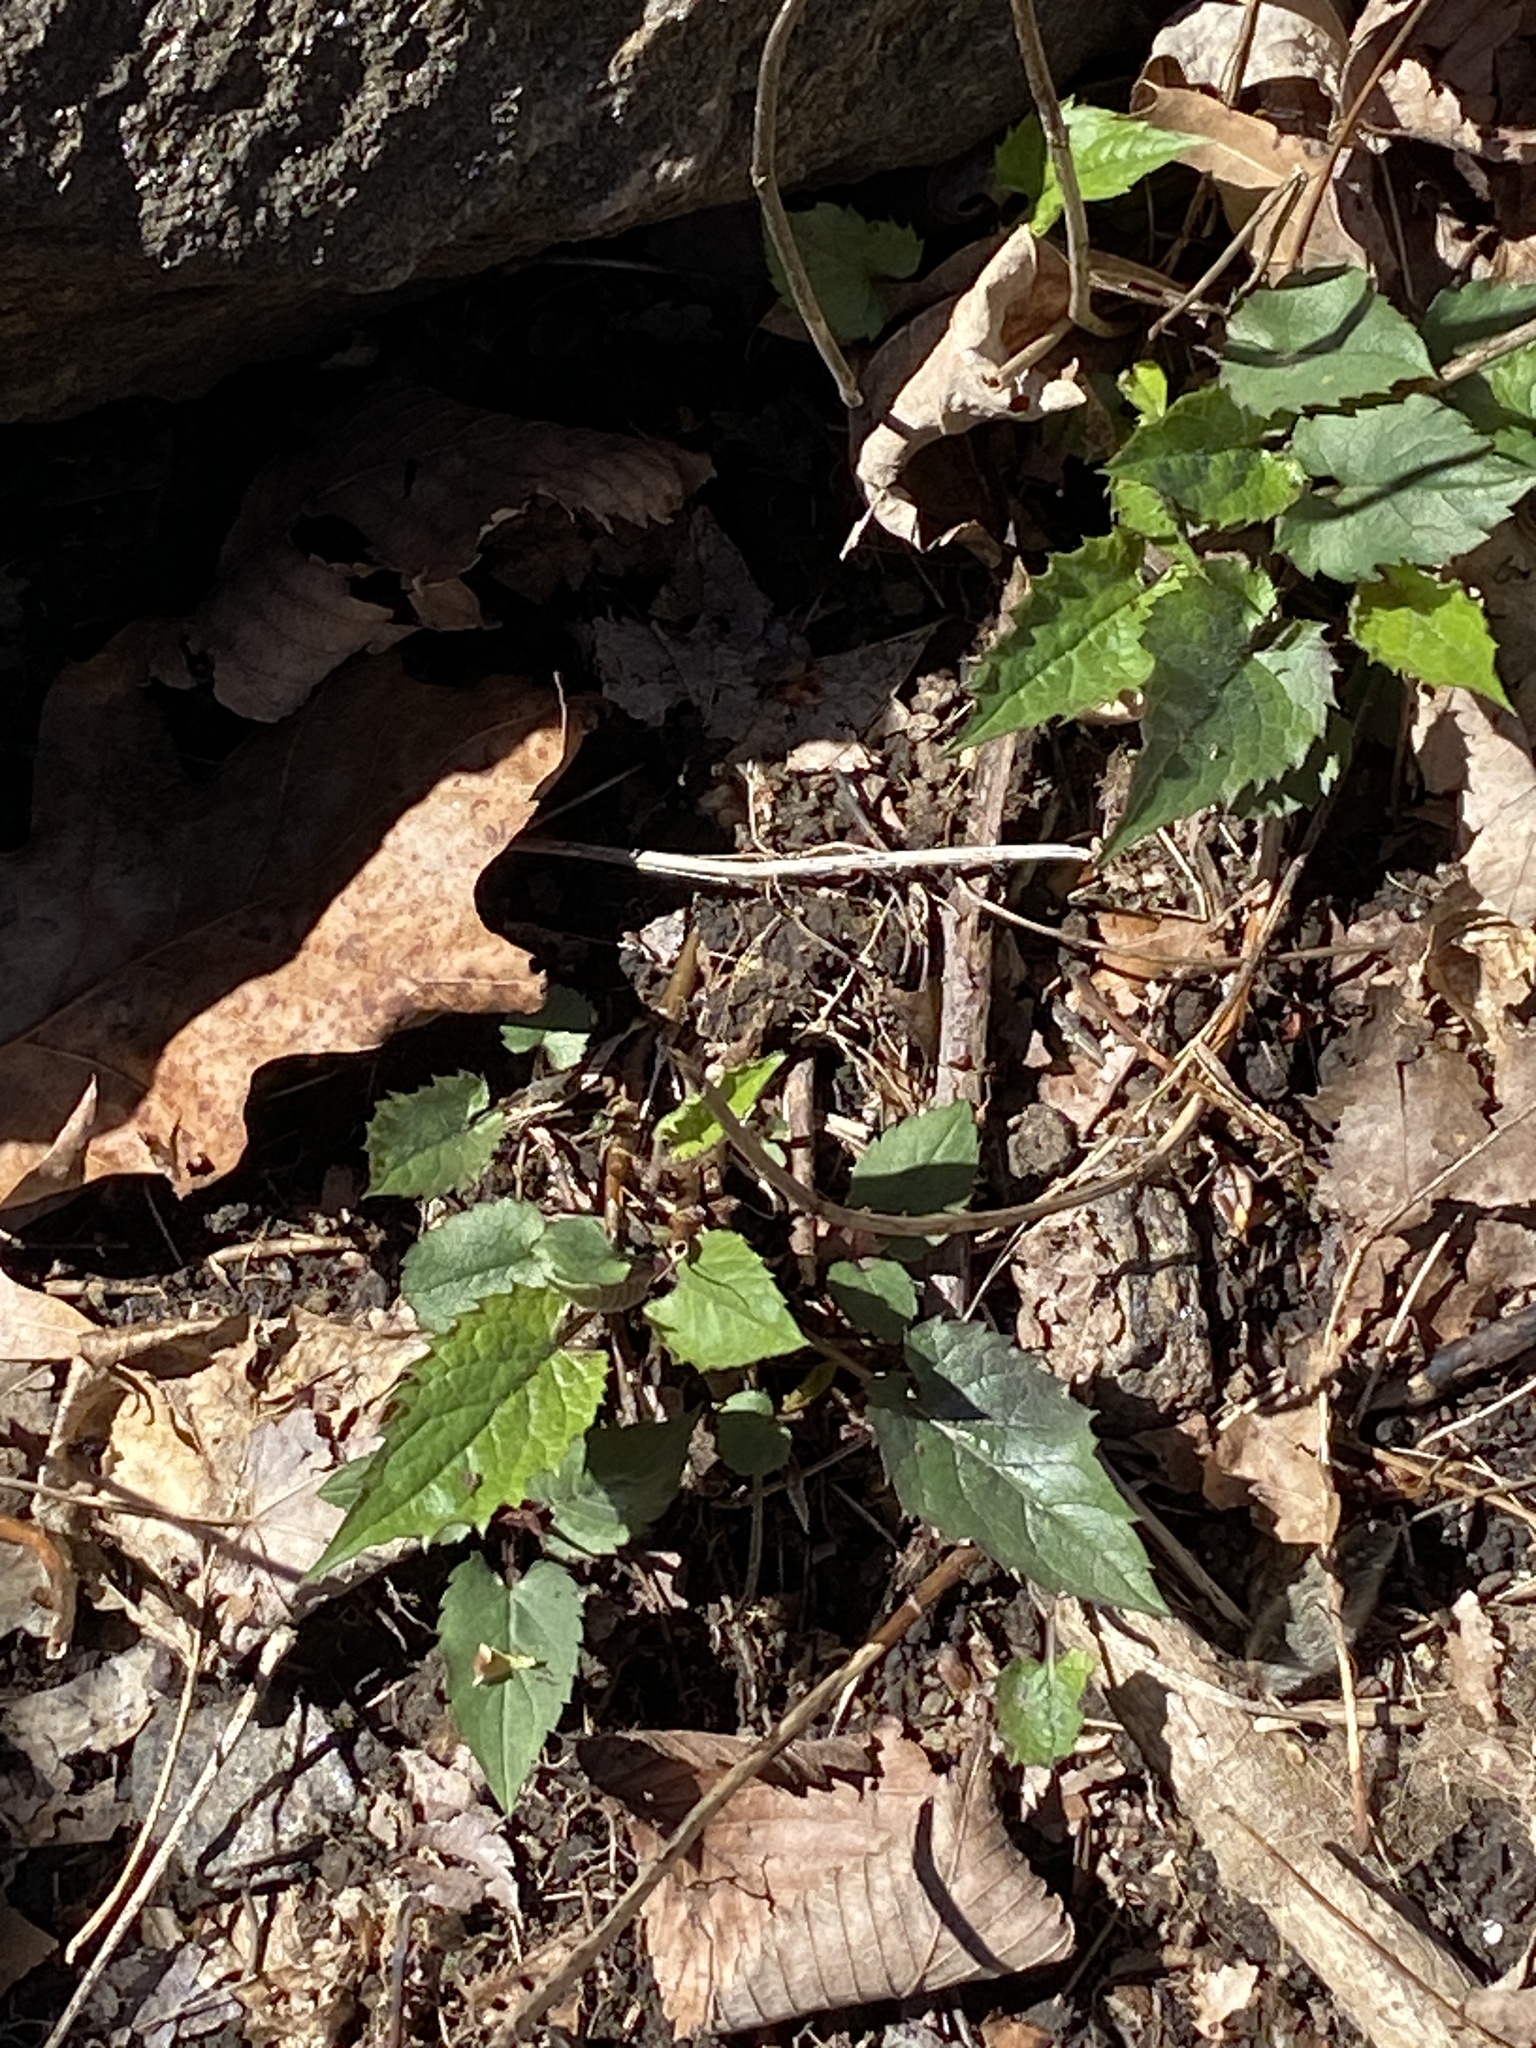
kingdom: Plantae
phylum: Tracheophyta
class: Magnoliopsida
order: Asterales
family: Asteraceae
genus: Eurybia
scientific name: Eurybia divaricata
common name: White wood aster
